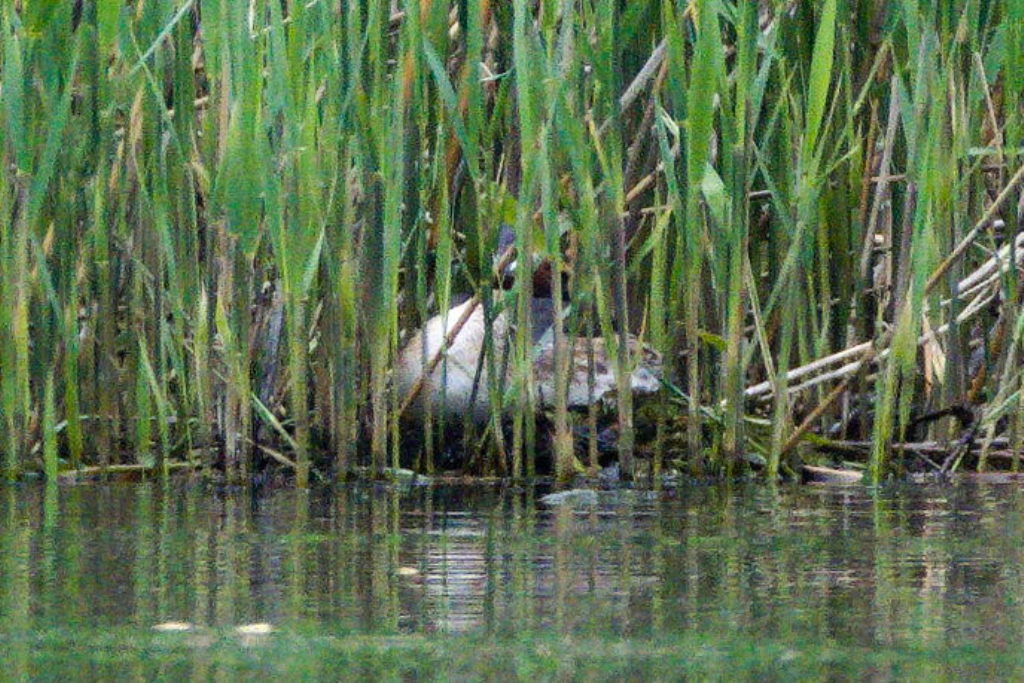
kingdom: Animalia
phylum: Chordata
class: Aves
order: Podicipediformes
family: Podicipedidae
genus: Podiceps
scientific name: Podiceps cristatus
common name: Great crested grebe
